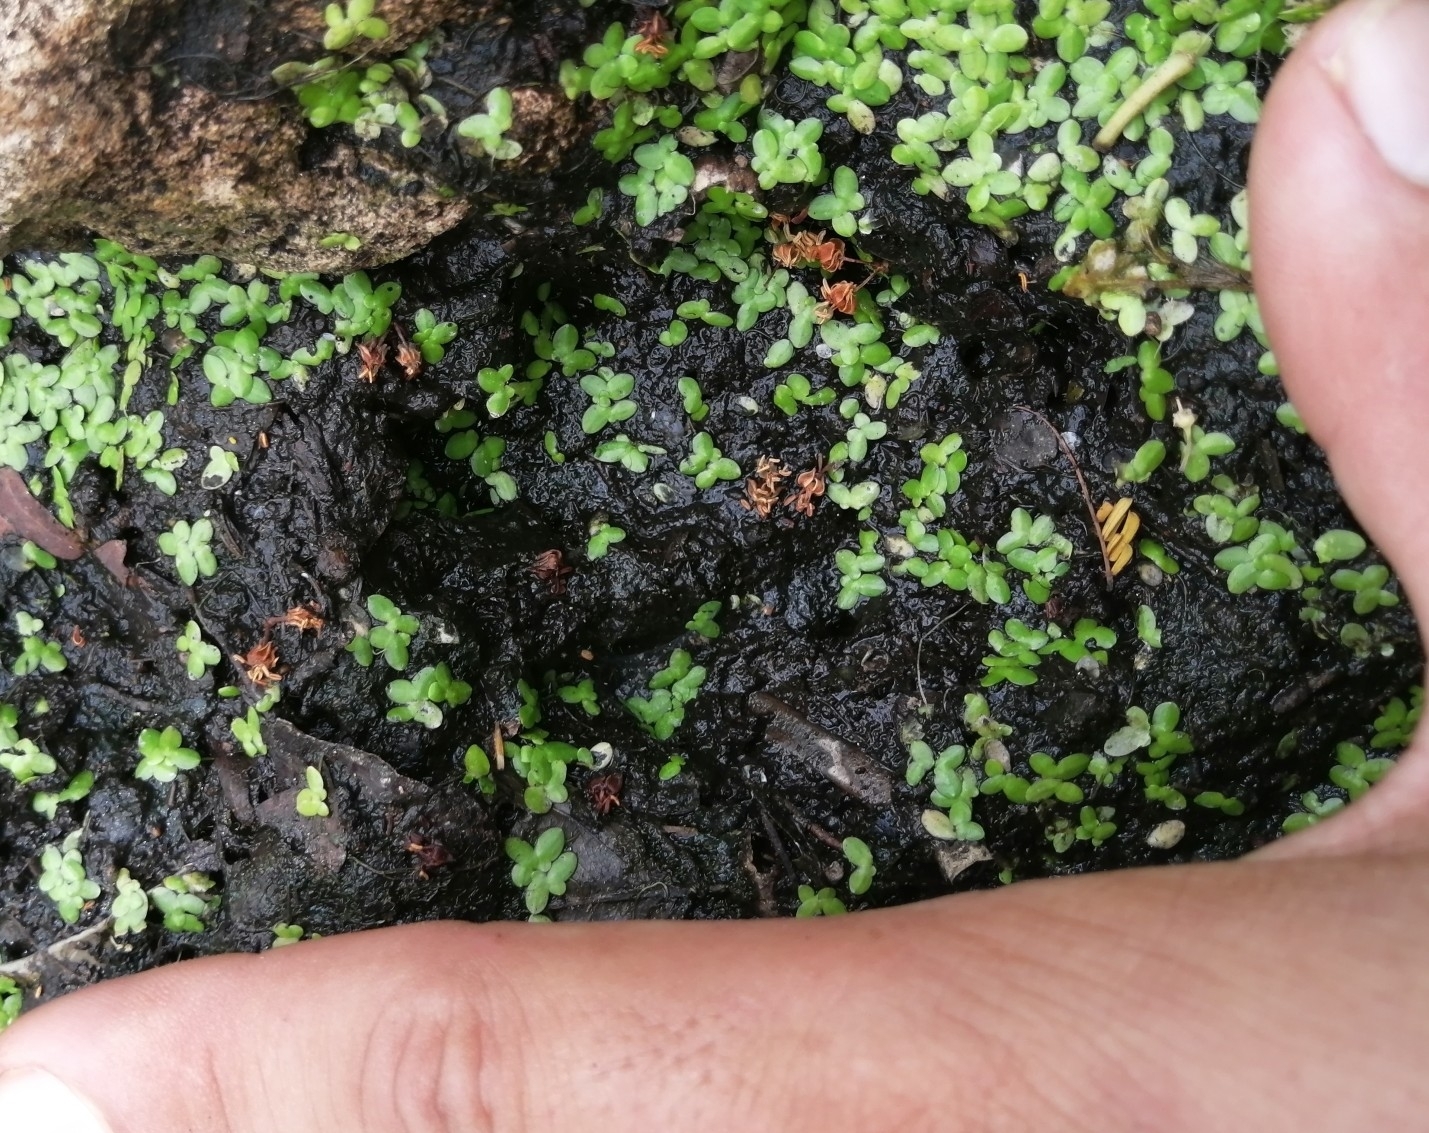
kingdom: Animalia
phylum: Chordata
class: Mammalia
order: Carnivora
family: Procyonidae
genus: Nasua
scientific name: Nasua narica
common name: White-nosed coati
